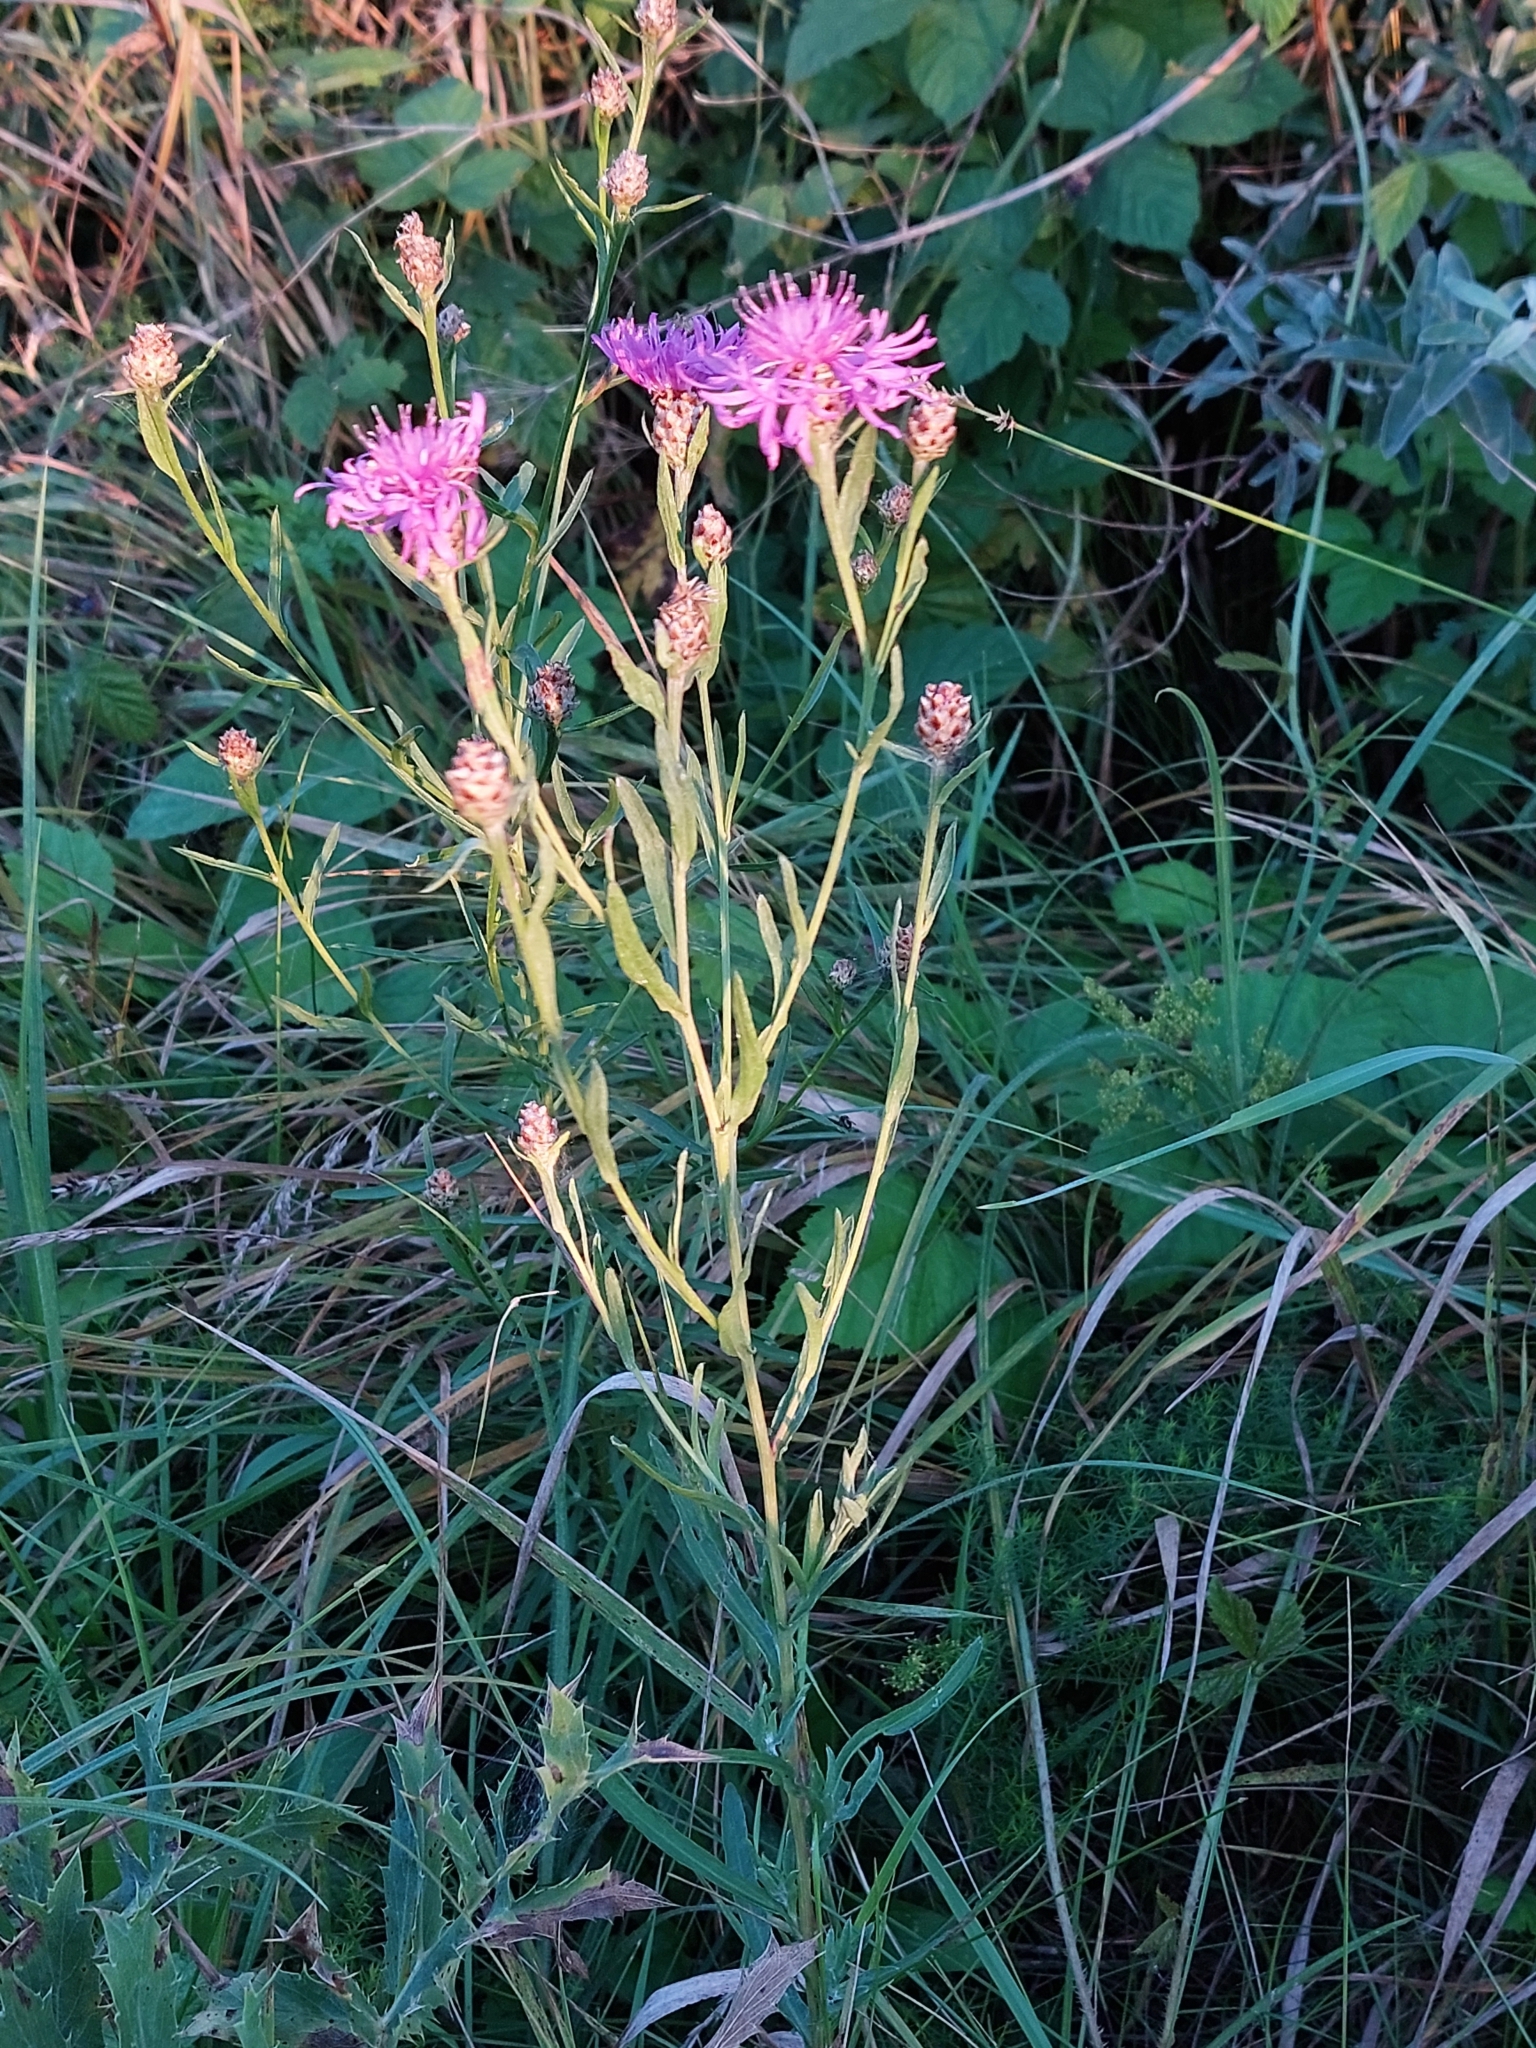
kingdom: Plantae
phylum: Tracheophyta
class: Magnoliopsida
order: Asterales
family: Asteraceae
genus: Centaurea
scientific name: Centaurea jacea
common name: Brown knapweed
